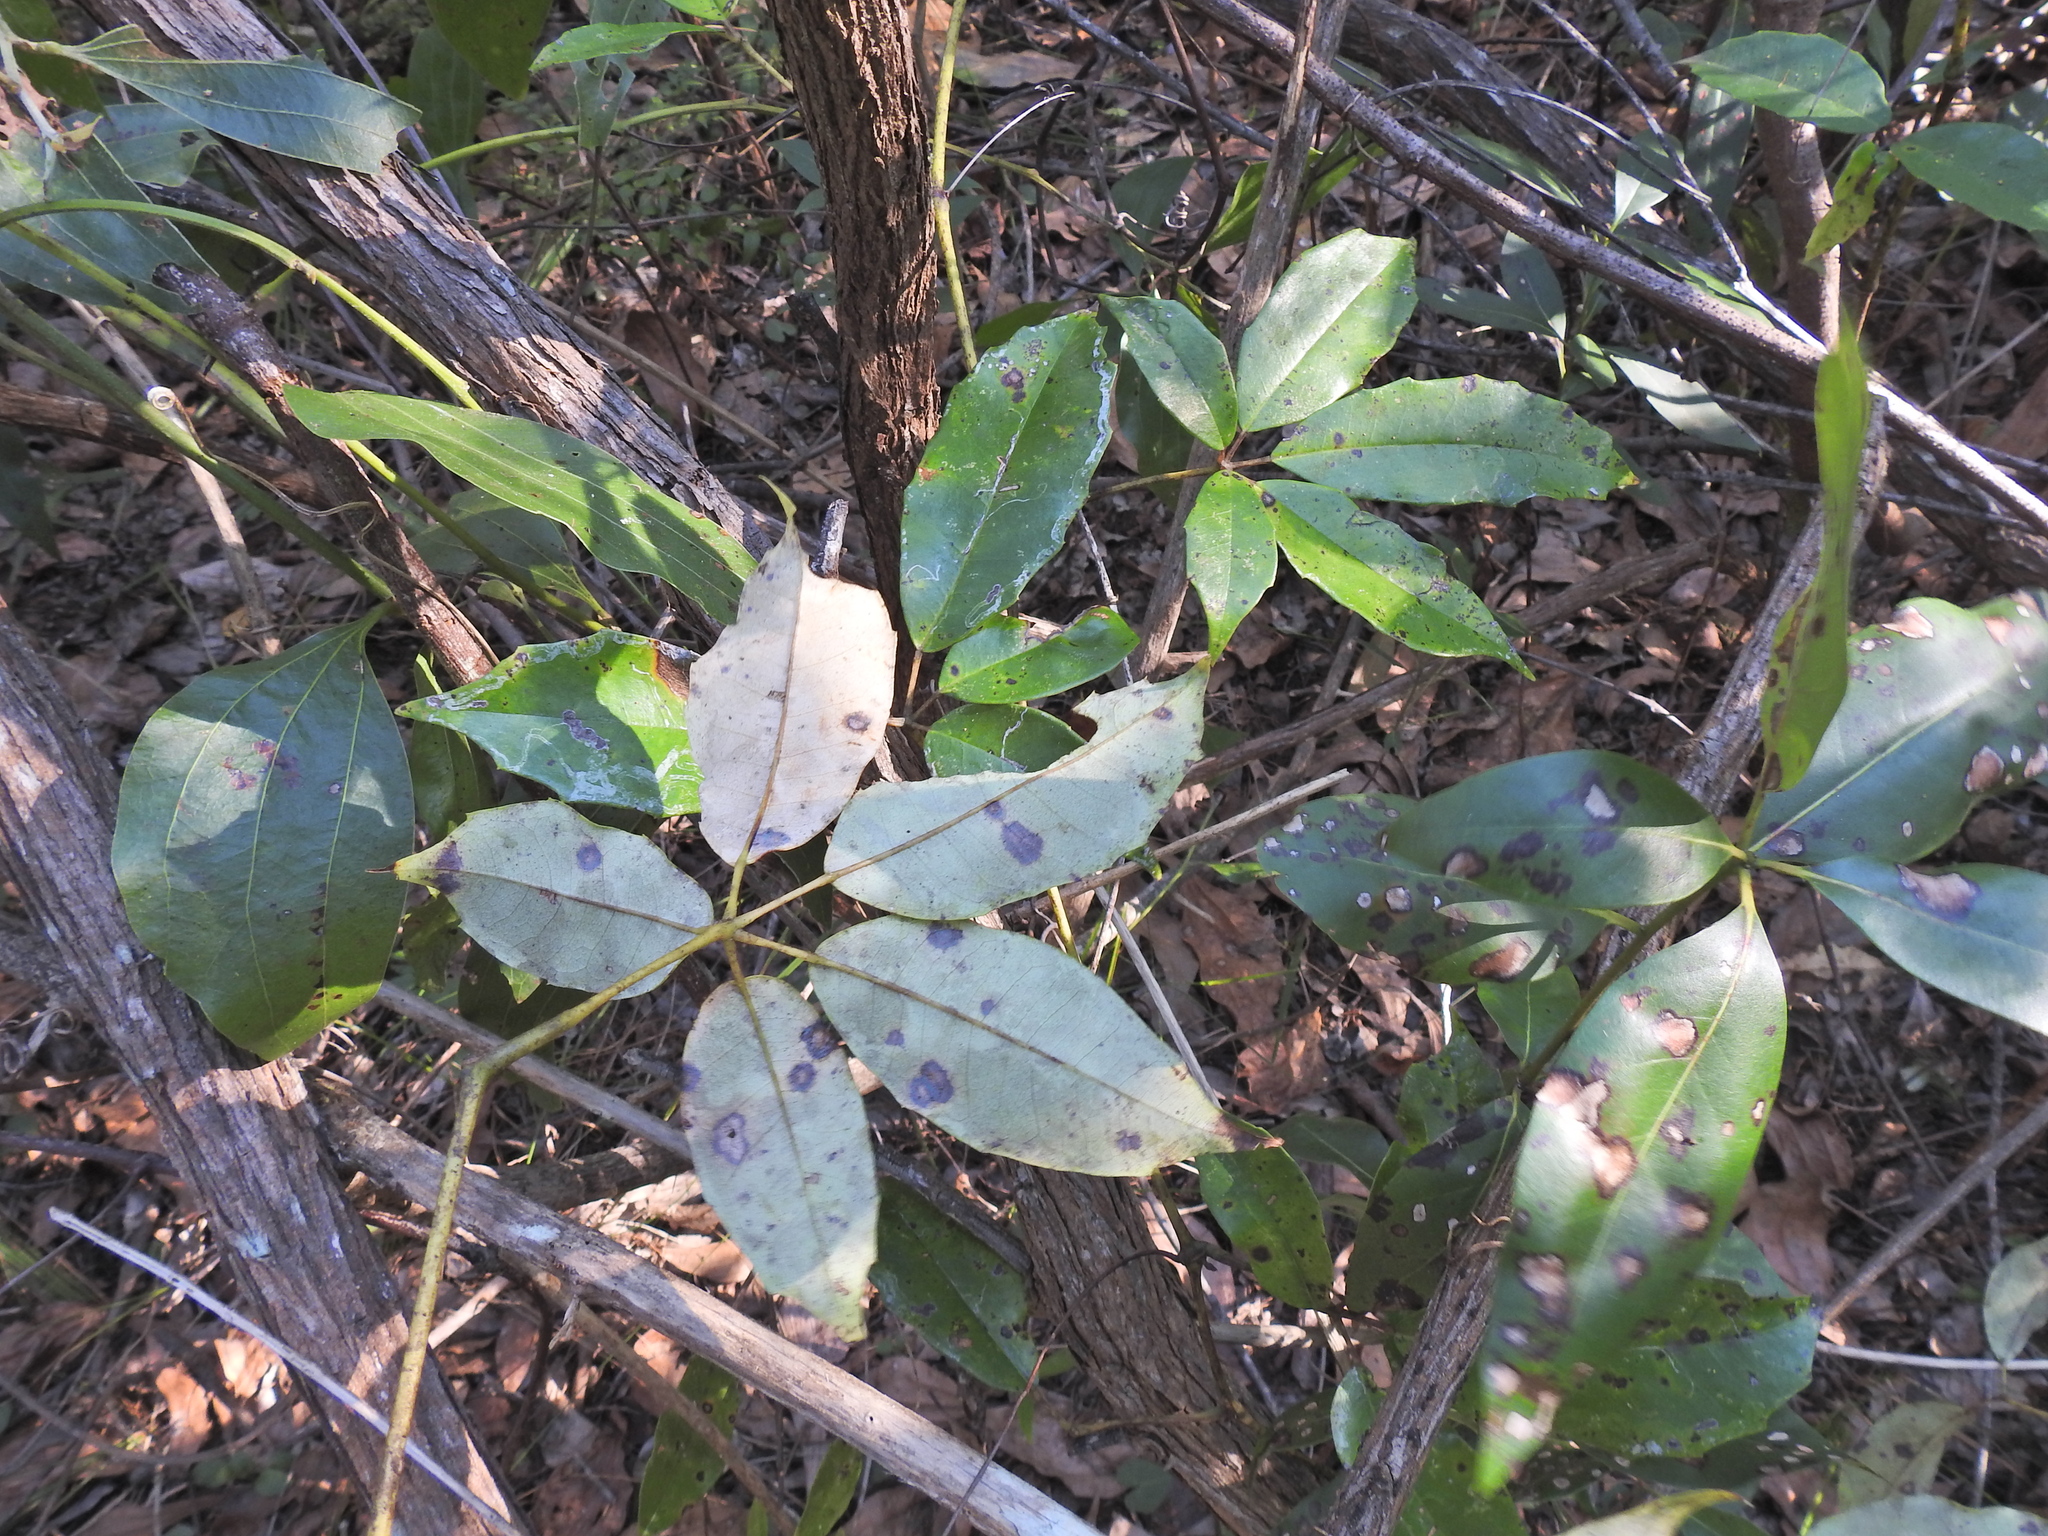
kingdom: Plantae
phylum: Tracheophyta
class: Magnoliopsida
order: Vitales
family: Vitaceae
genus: Nothocissus
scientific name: Nothocissus hypoglauca
